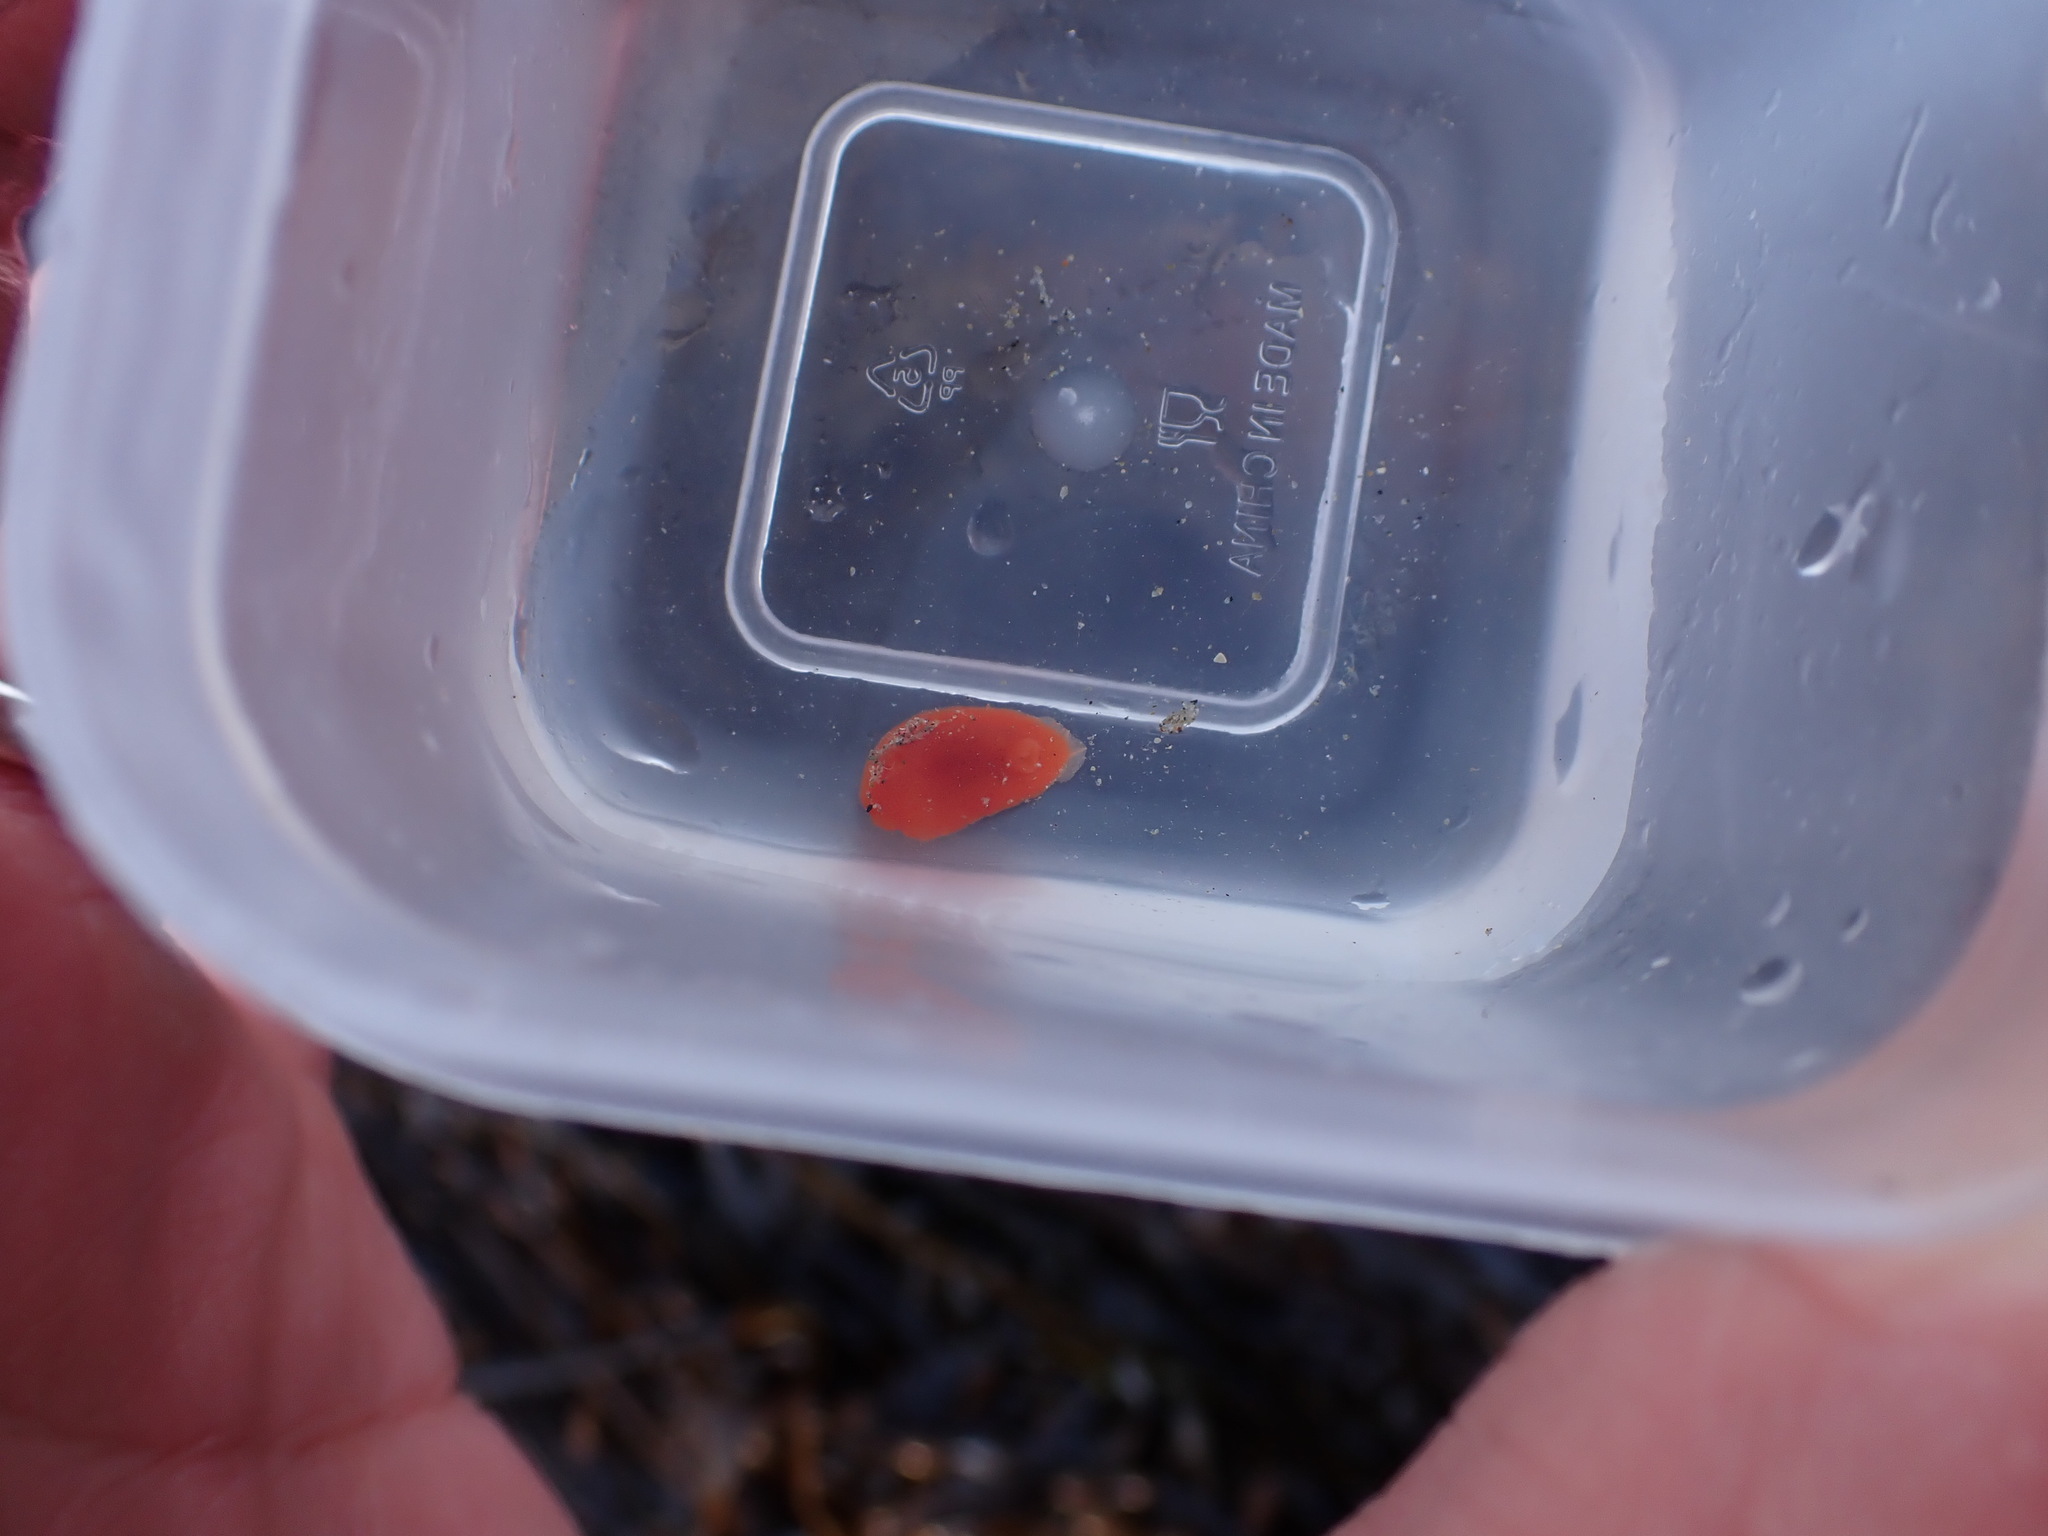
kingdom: Animalia
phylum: Mollusca
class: Gastropoda
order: Nudibranchia
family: Discodorididae
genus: Rostanga
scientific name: Rostanga pulchra
